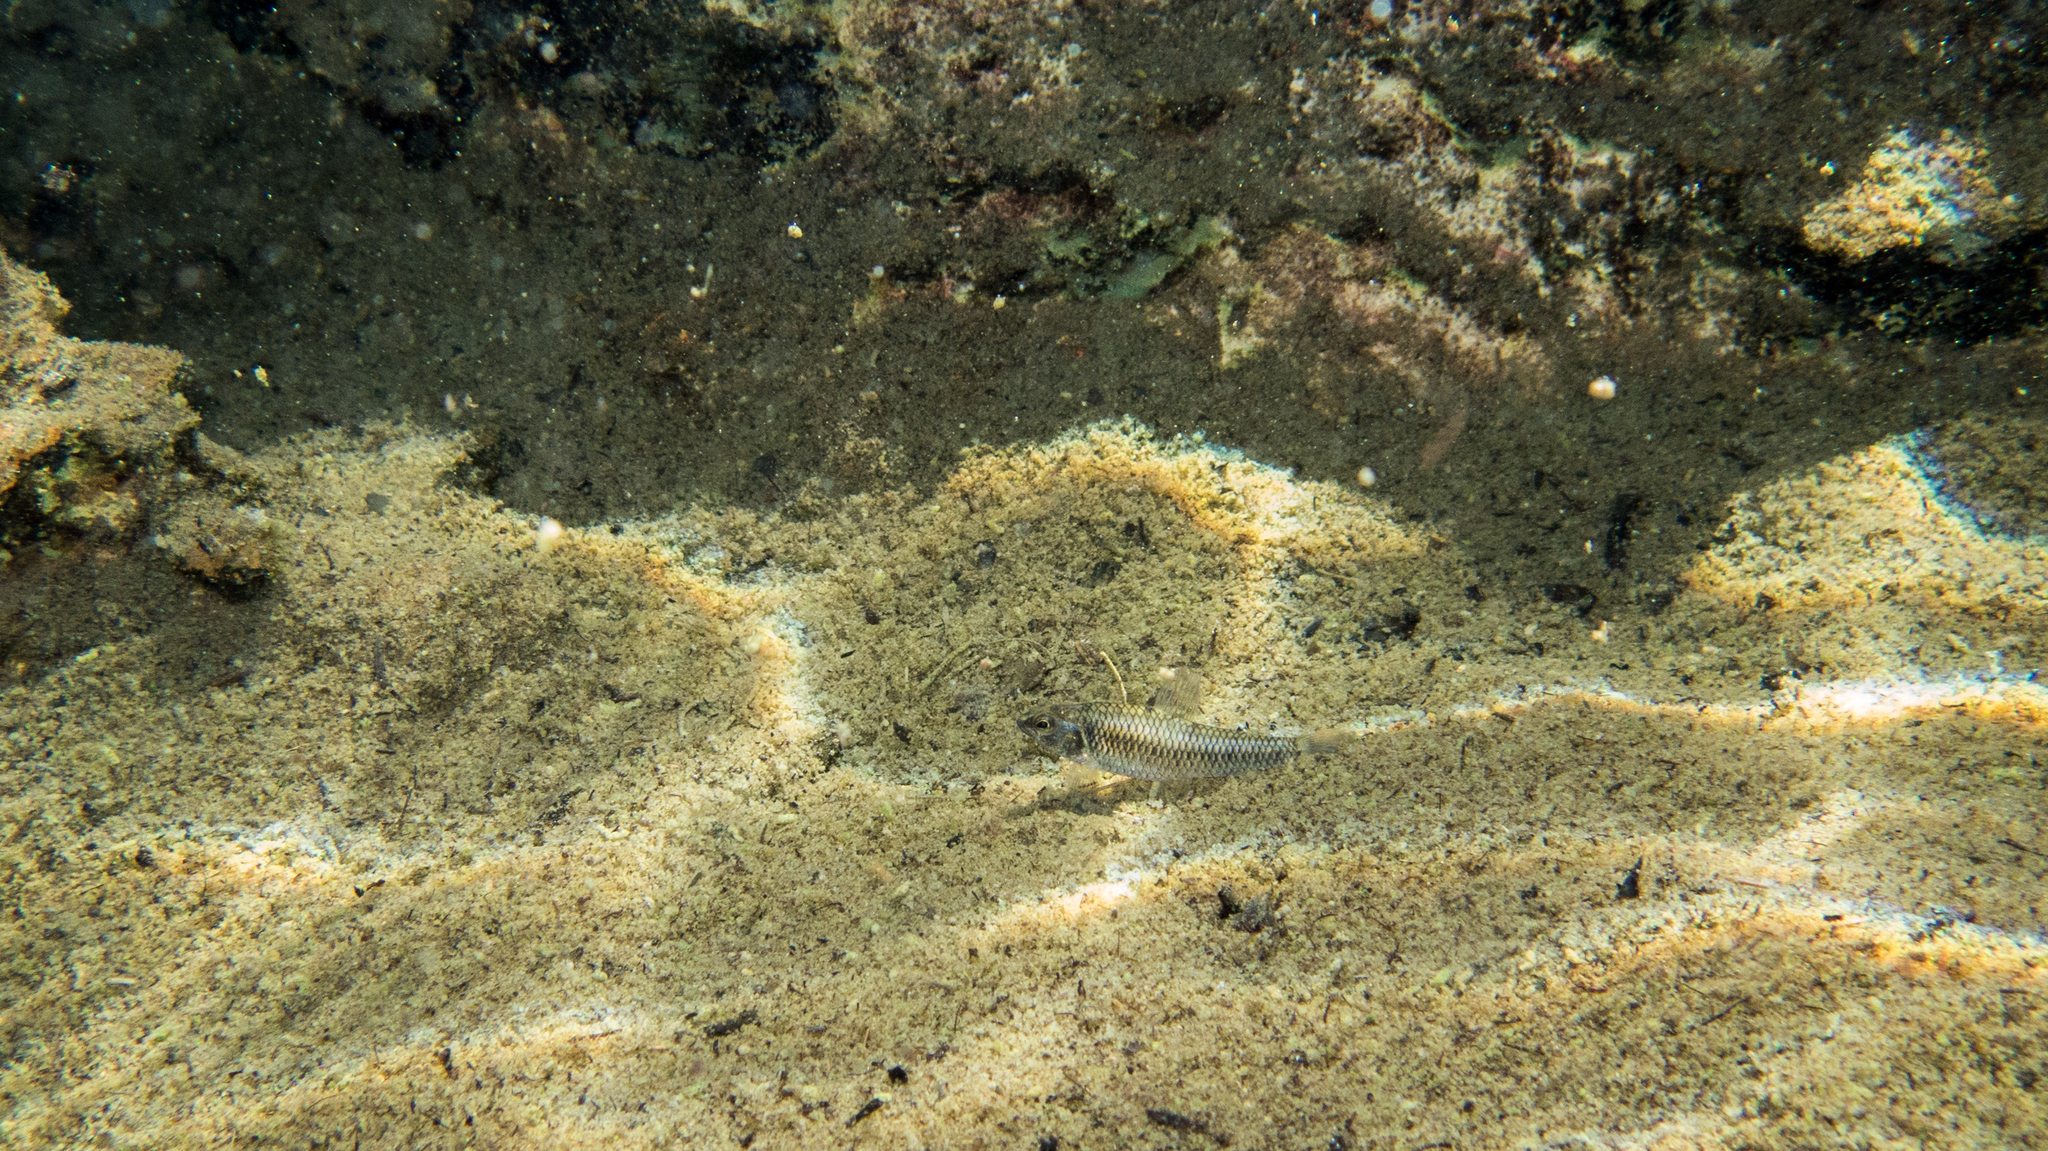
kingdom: Animalia
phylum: Chordata
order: Characiformes
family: Crenuchidae
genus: Characidium
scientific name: Characidium oiticicai
